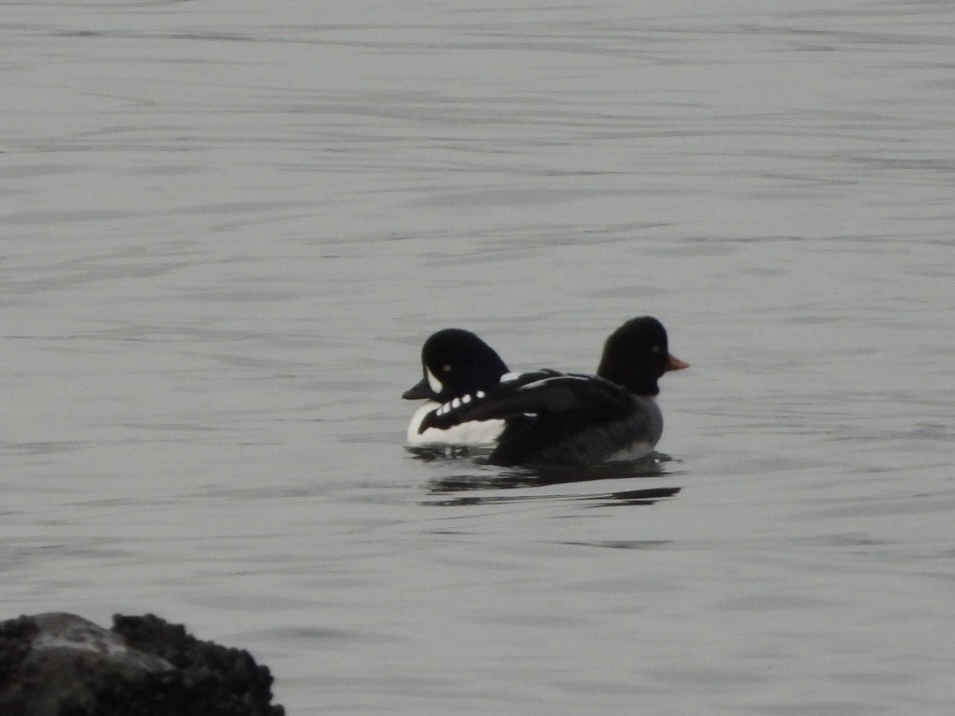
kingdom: Animalia
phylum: Chordata
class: Aves
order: Anseriformes
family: Anatidae
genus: Bucephala
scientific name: Bucephala islandica
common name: Barrow's goldeneye
